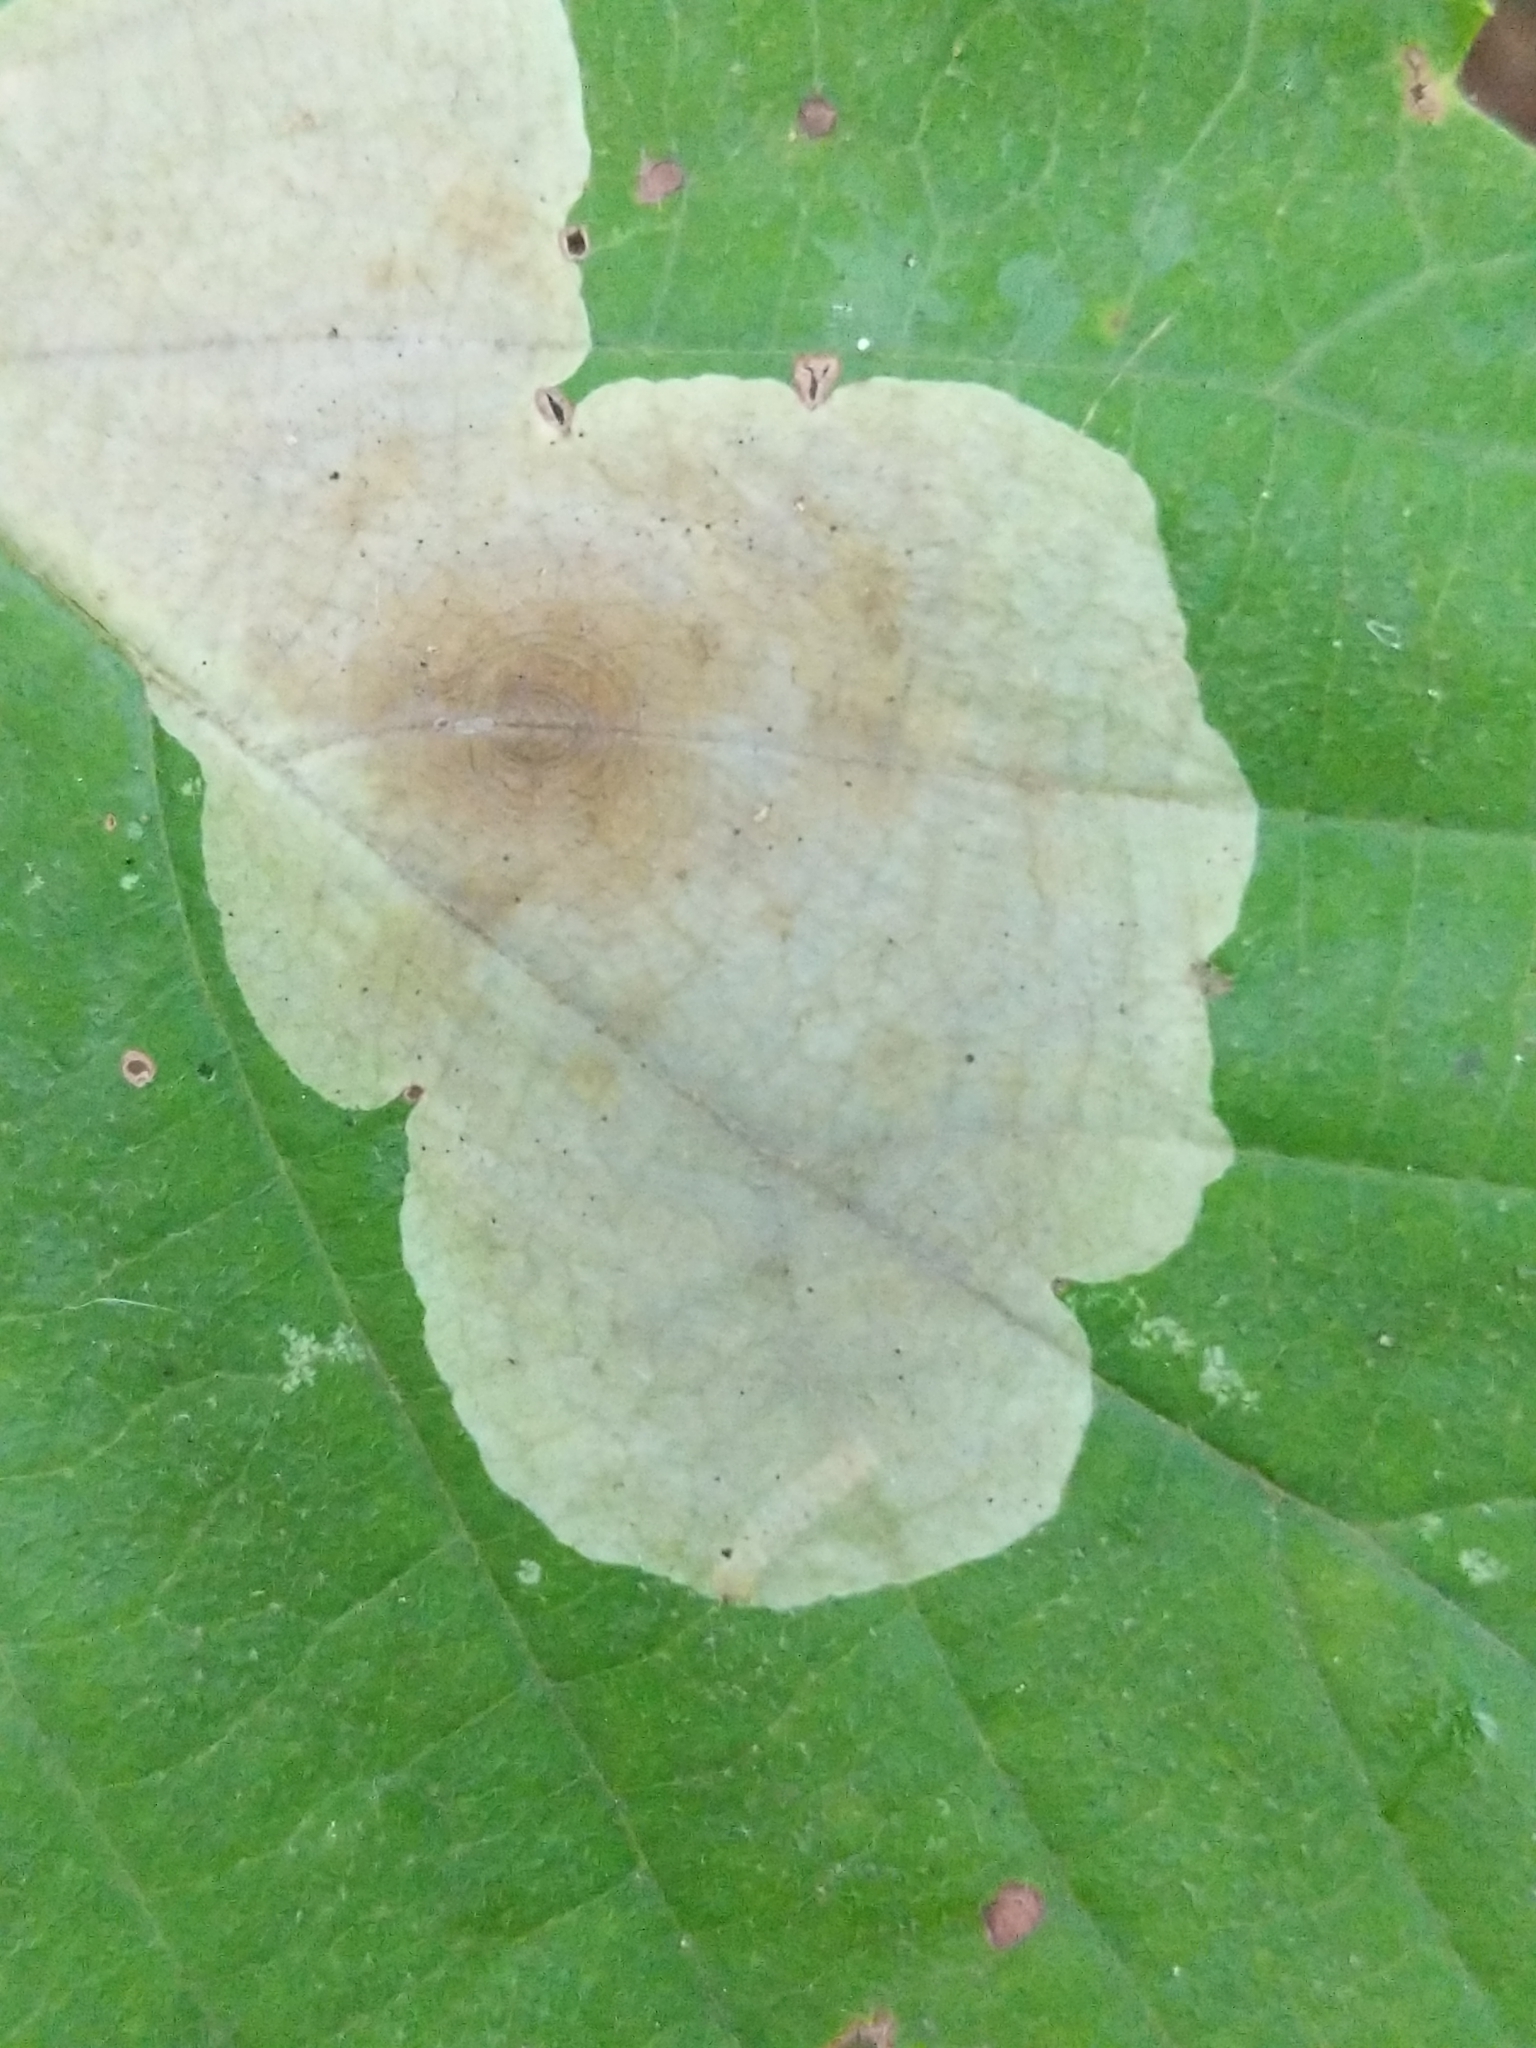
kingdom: Animalia
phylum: Arthropoda
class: Insecta
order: Lepidoptera
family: Gracillariidae
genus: Cameraria
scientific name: Cameraria hamameliella
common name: Witchhazel leafminer
